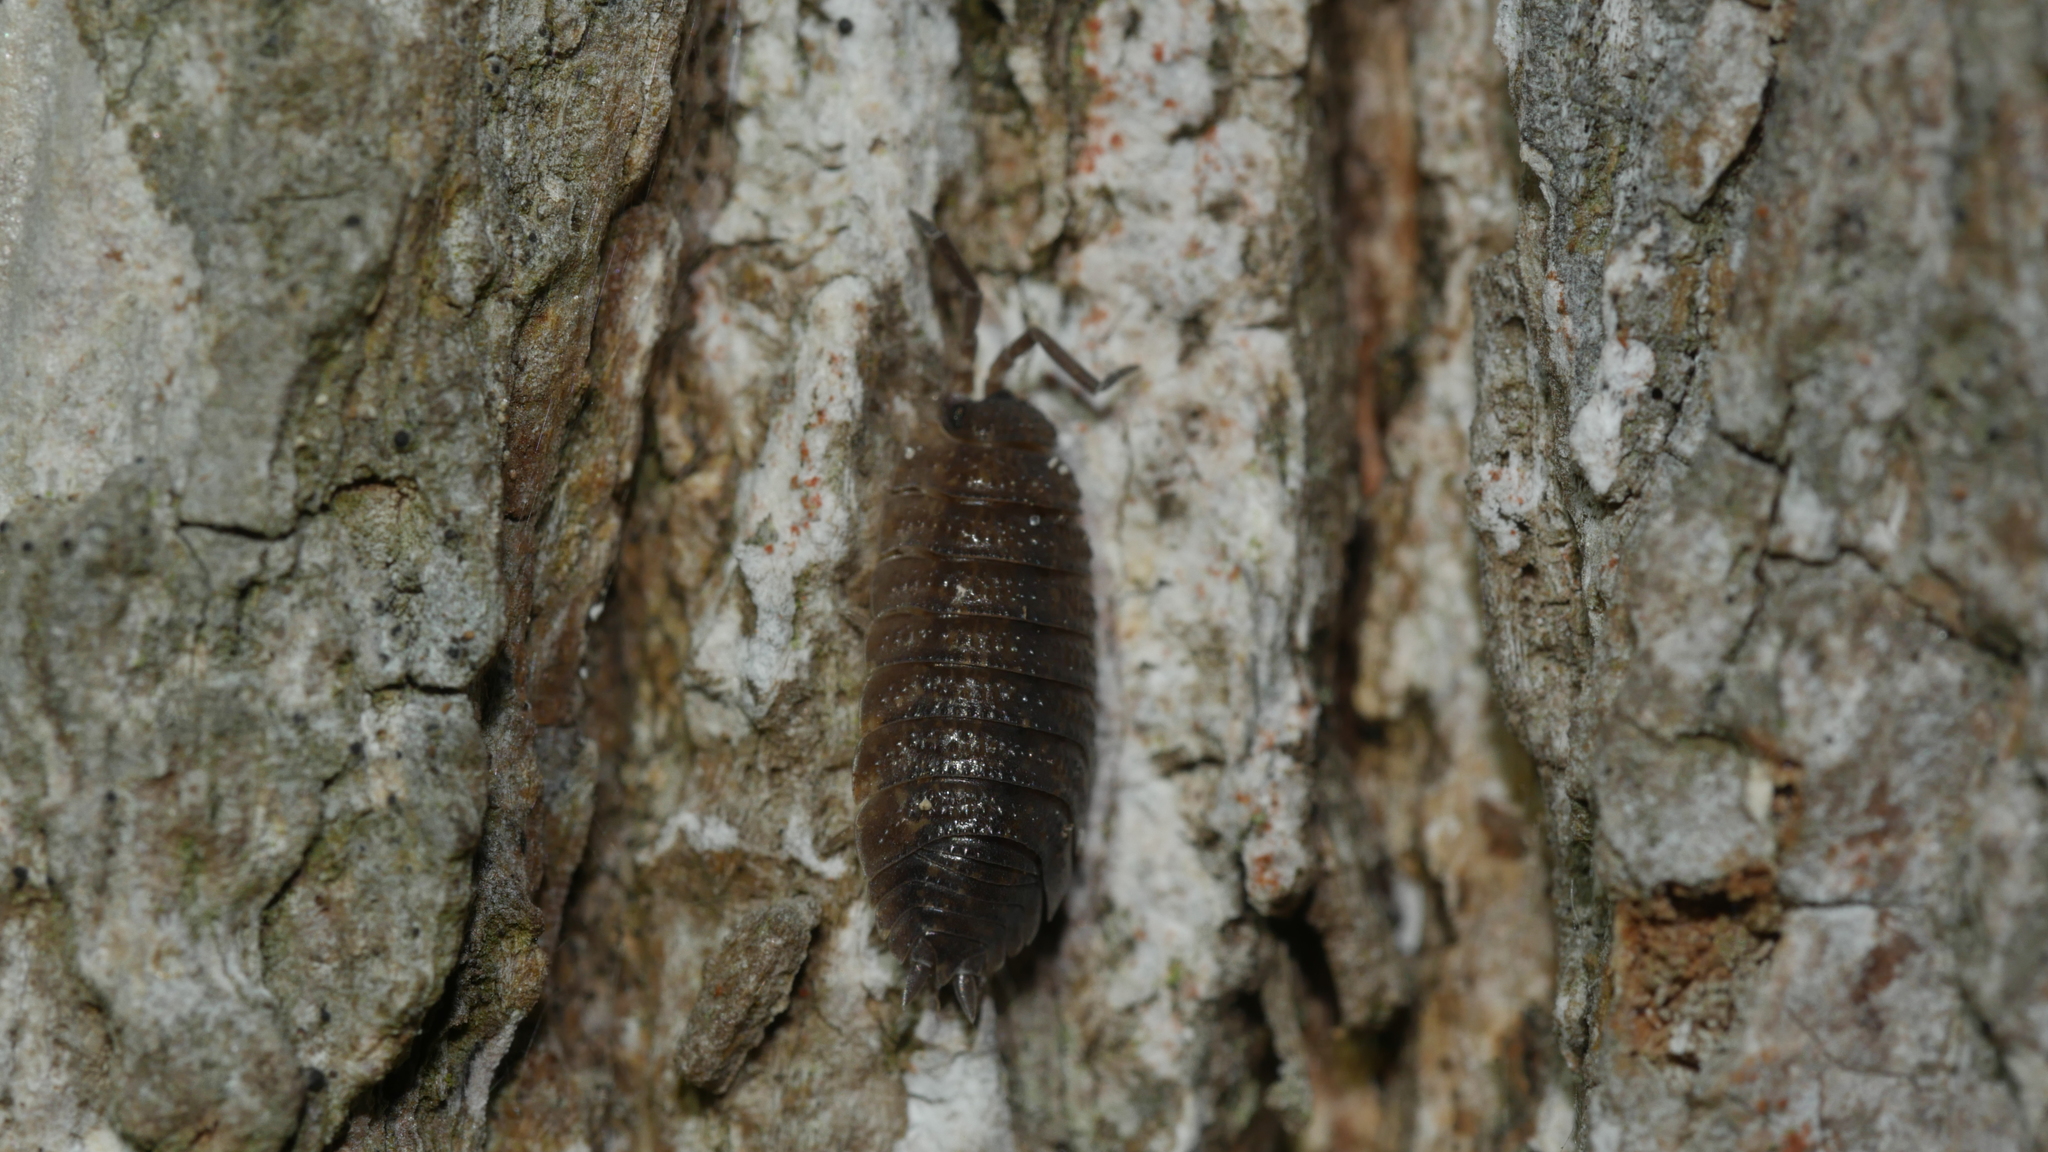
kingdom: Animalia
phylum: Arthropoda
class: Malacostraca
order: Isopoda
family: Porcellionidae
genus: Porcellio
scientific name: Porcellio scaber
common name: Common rough woodlouse
